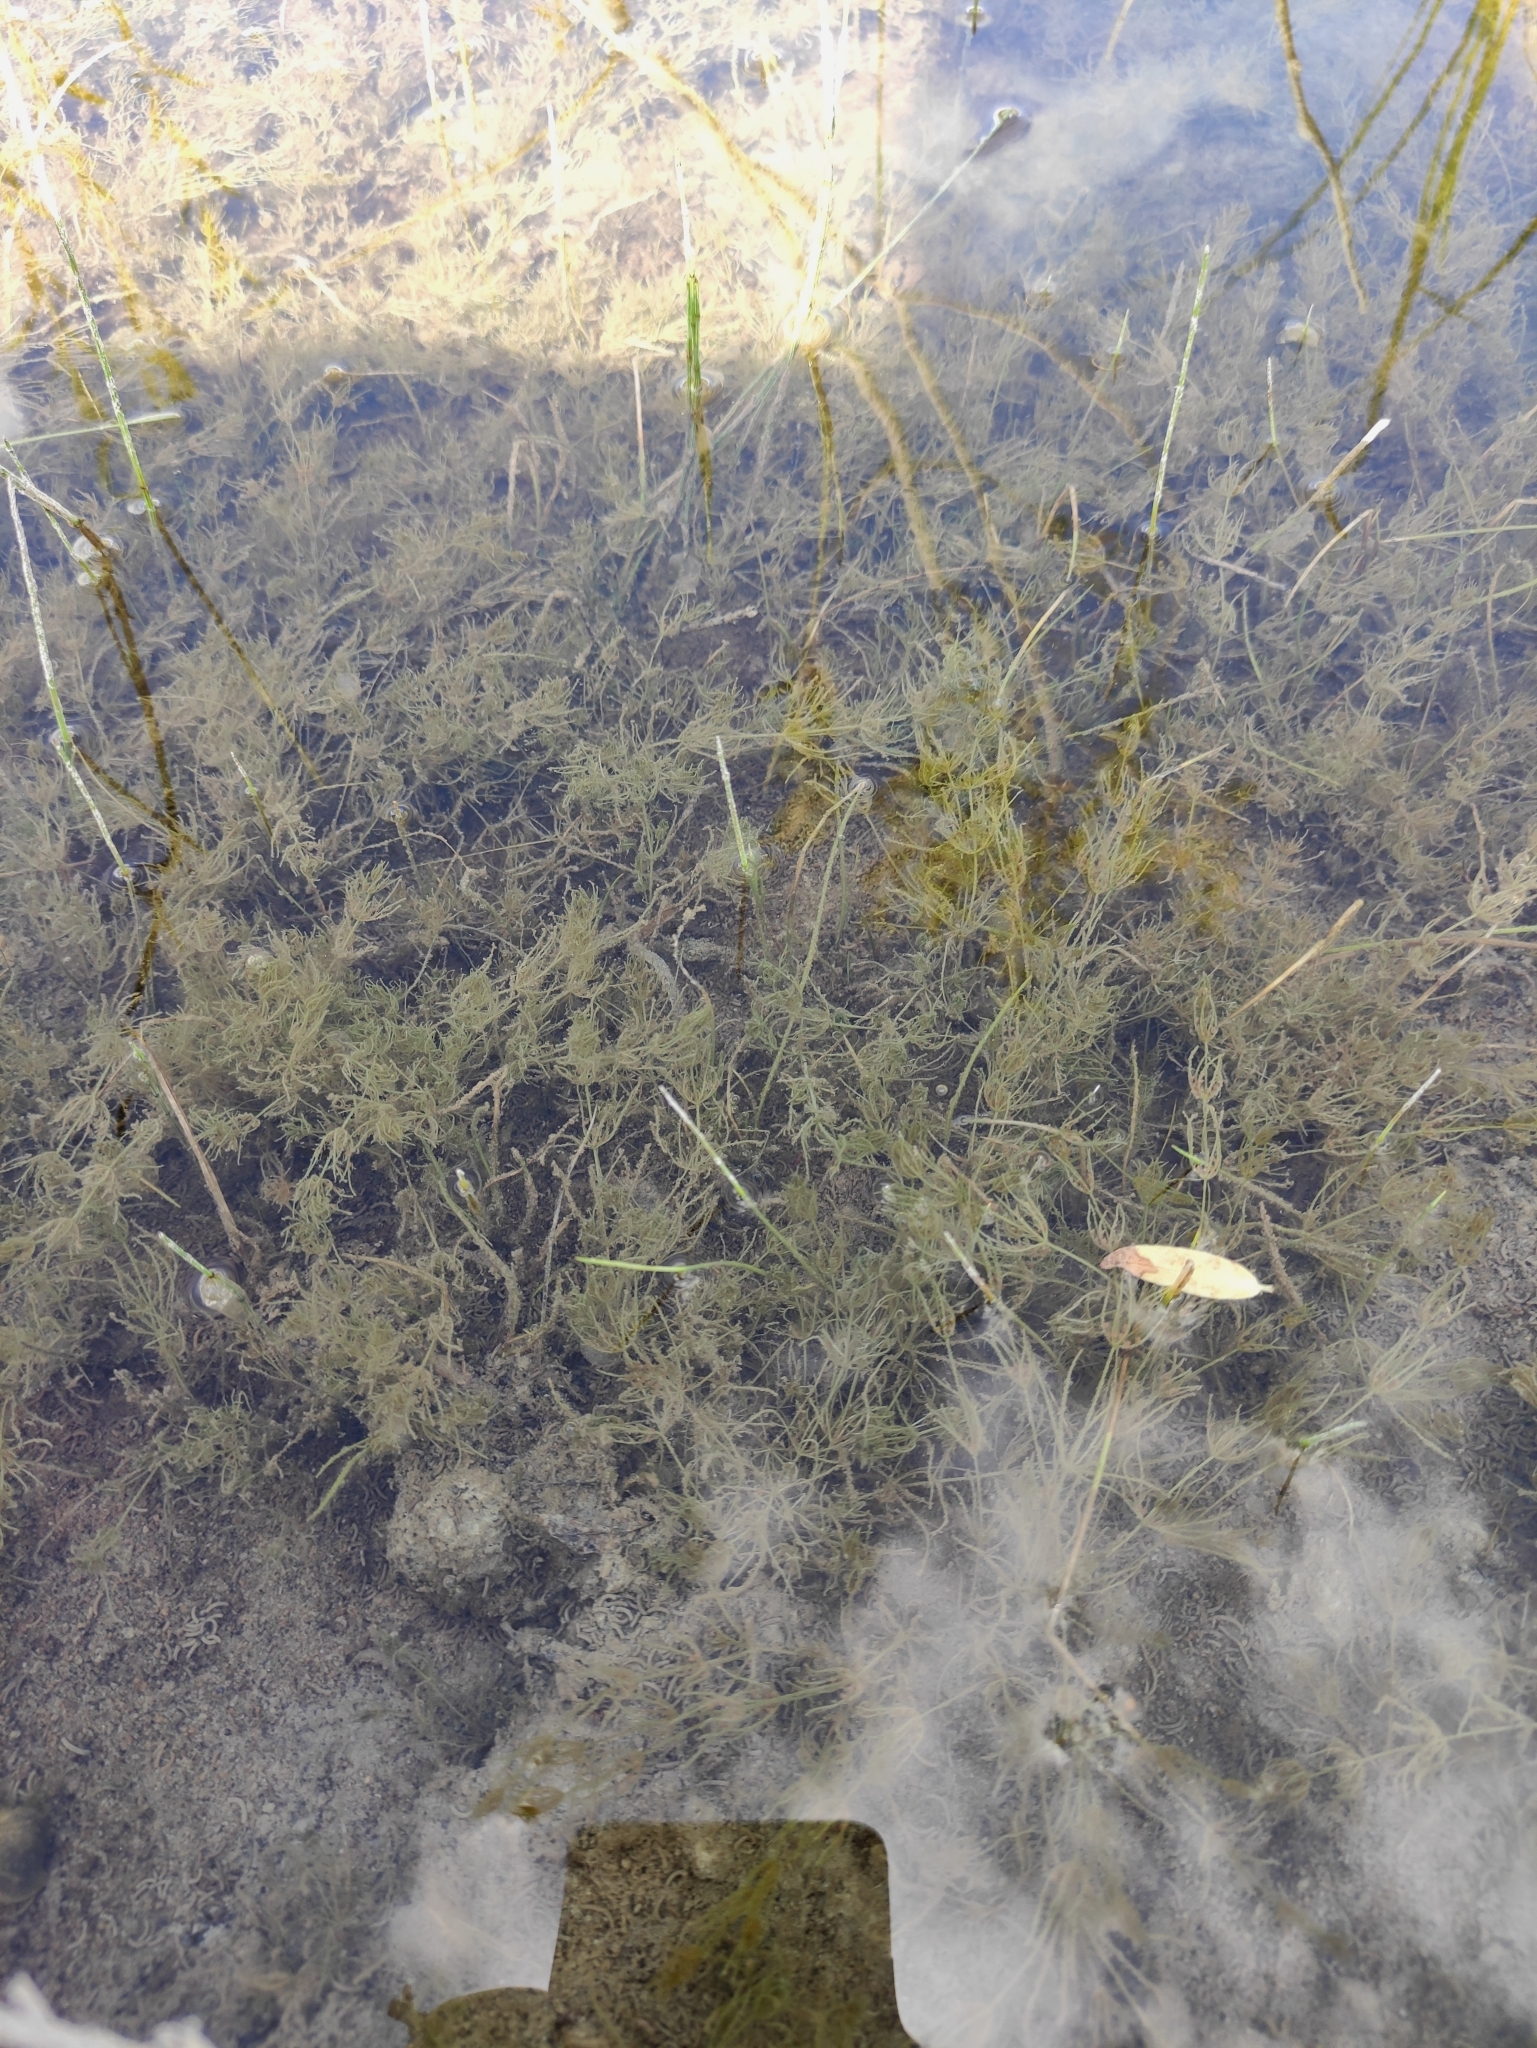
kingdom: Plantae
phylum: Charophyta
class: Charophyceae
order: Charales
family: Characeae
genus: Chara
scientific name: Chara contraria
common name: Opposite stonewort
